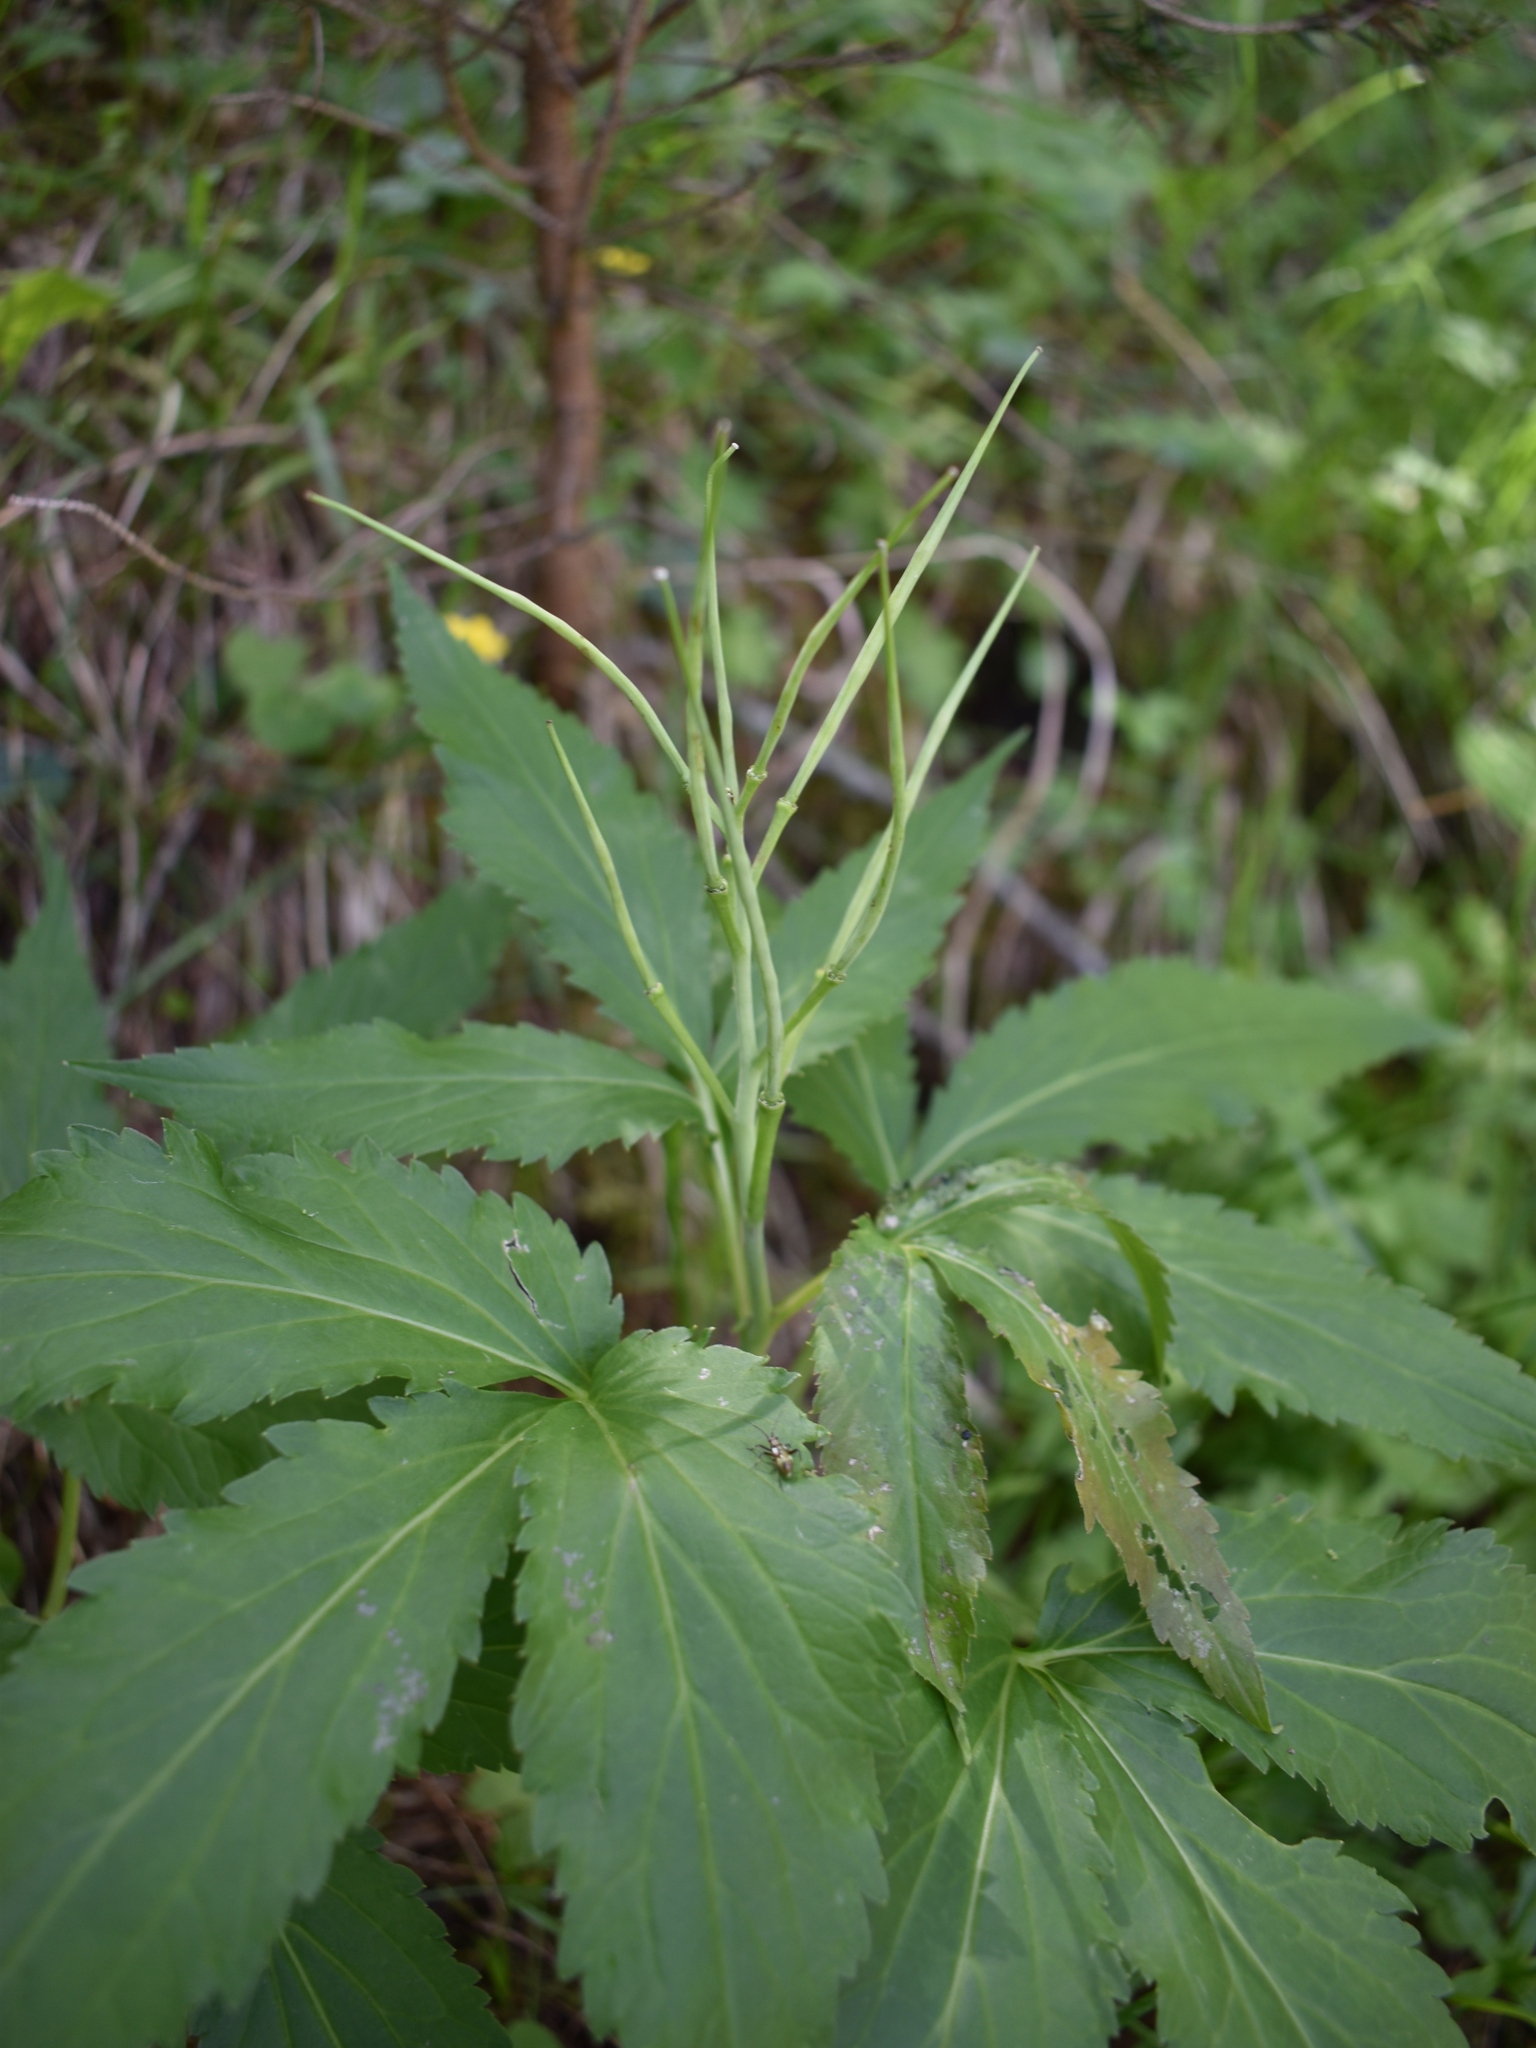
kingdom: Plantae
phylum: Tracheophyta
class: Magnoliopsida
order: Brassicales
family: Brassicaceae
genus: Cardamine
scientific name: Cardamine enneaphyllos
